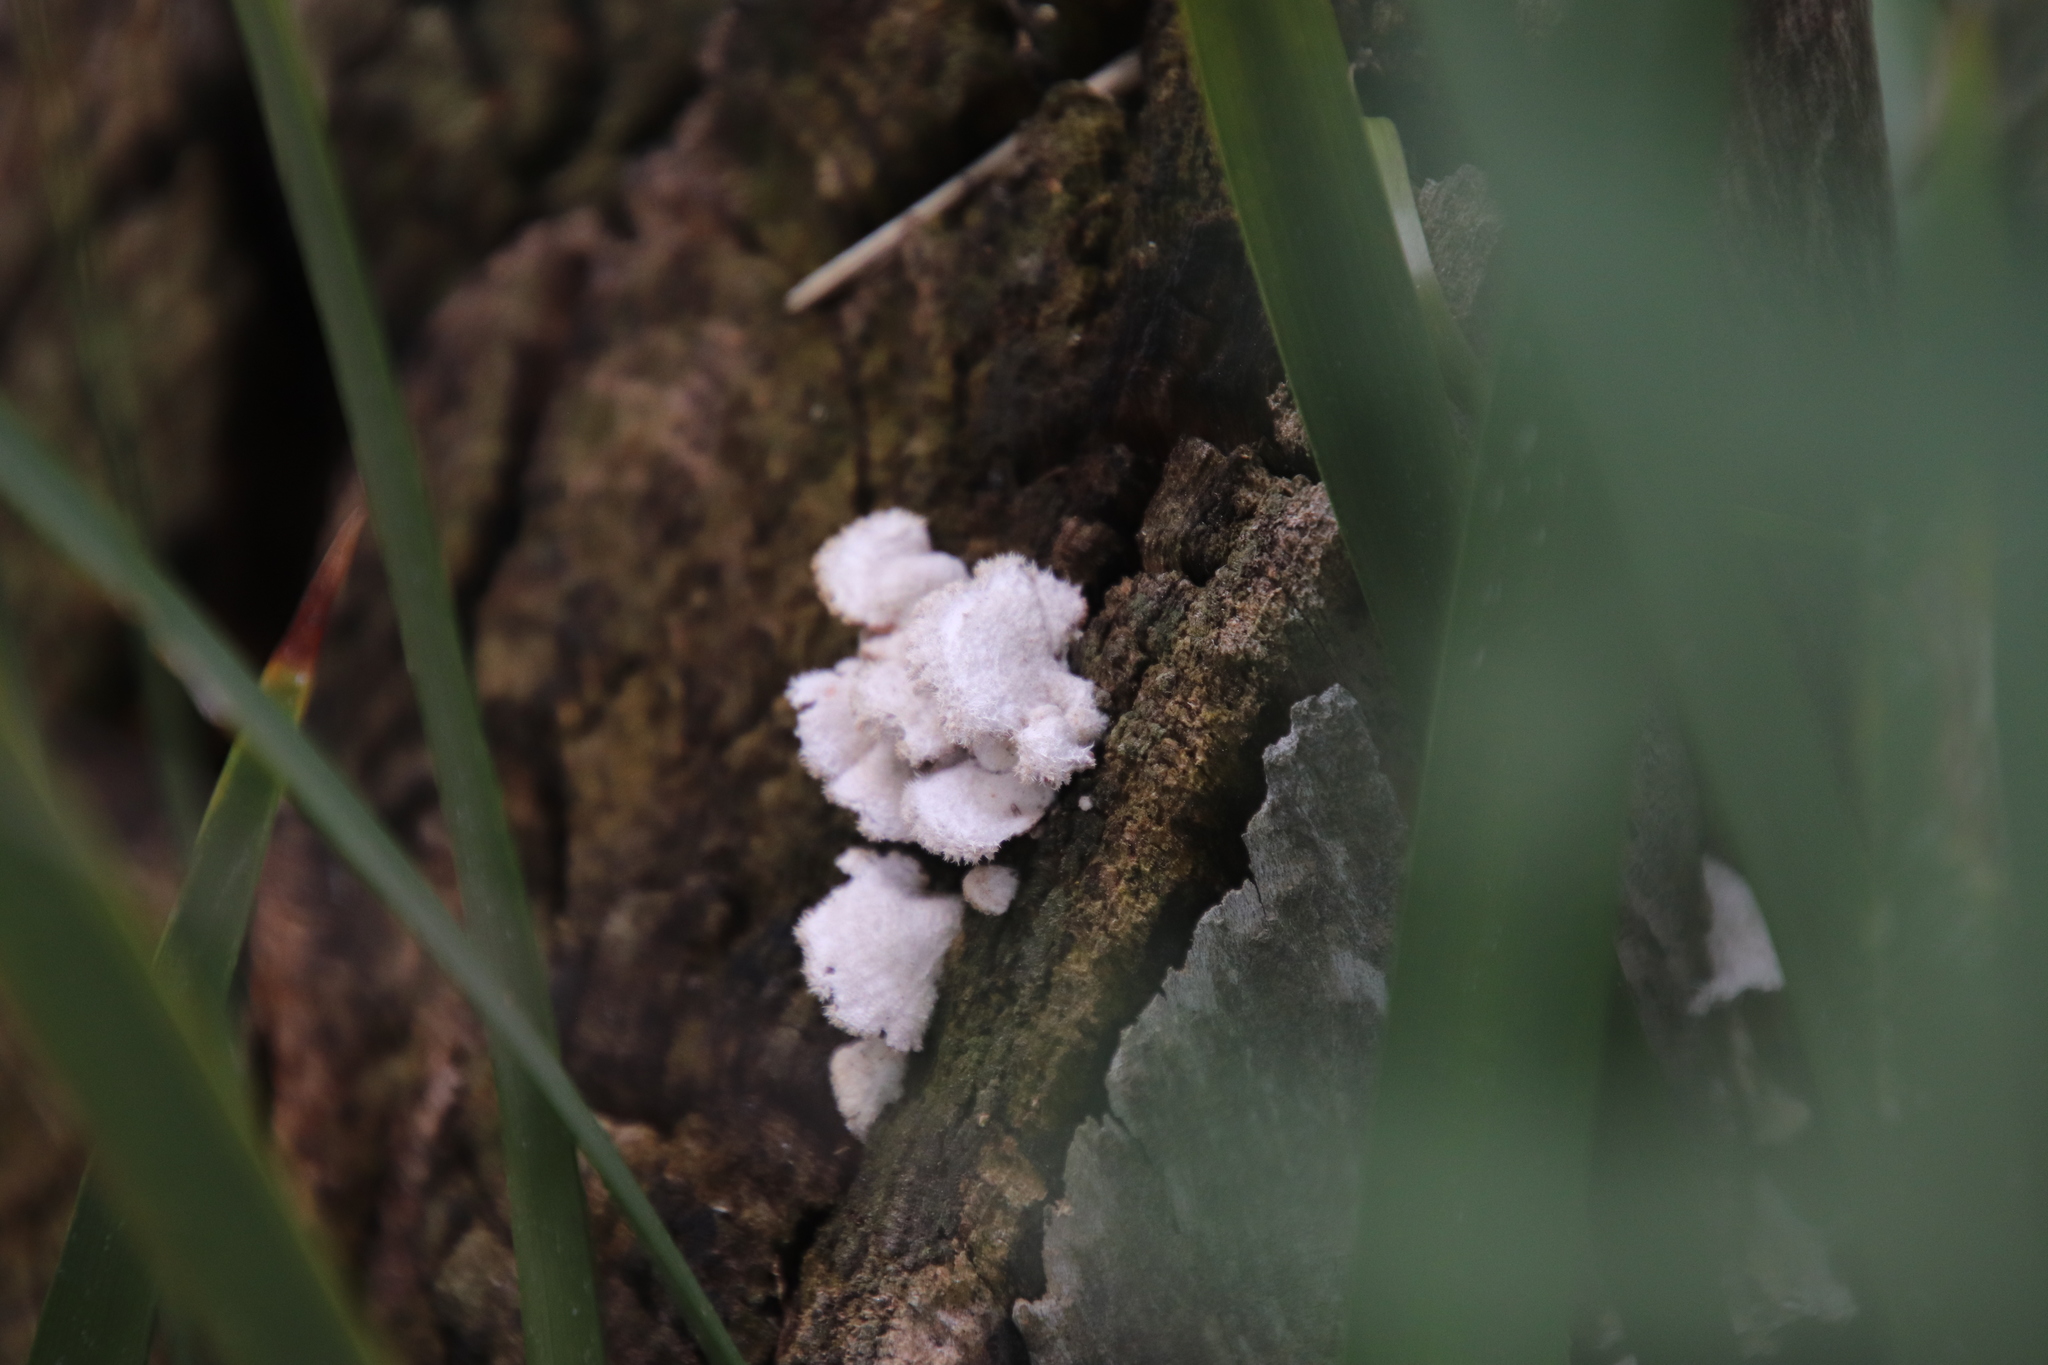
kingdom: Fungi
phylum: Basidiomycota
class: Agaricomycetes
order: Agaricales
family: Schizophyllaceae
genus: Schizophyllum
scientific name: Schizophyllum commune
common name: Common porecrust
